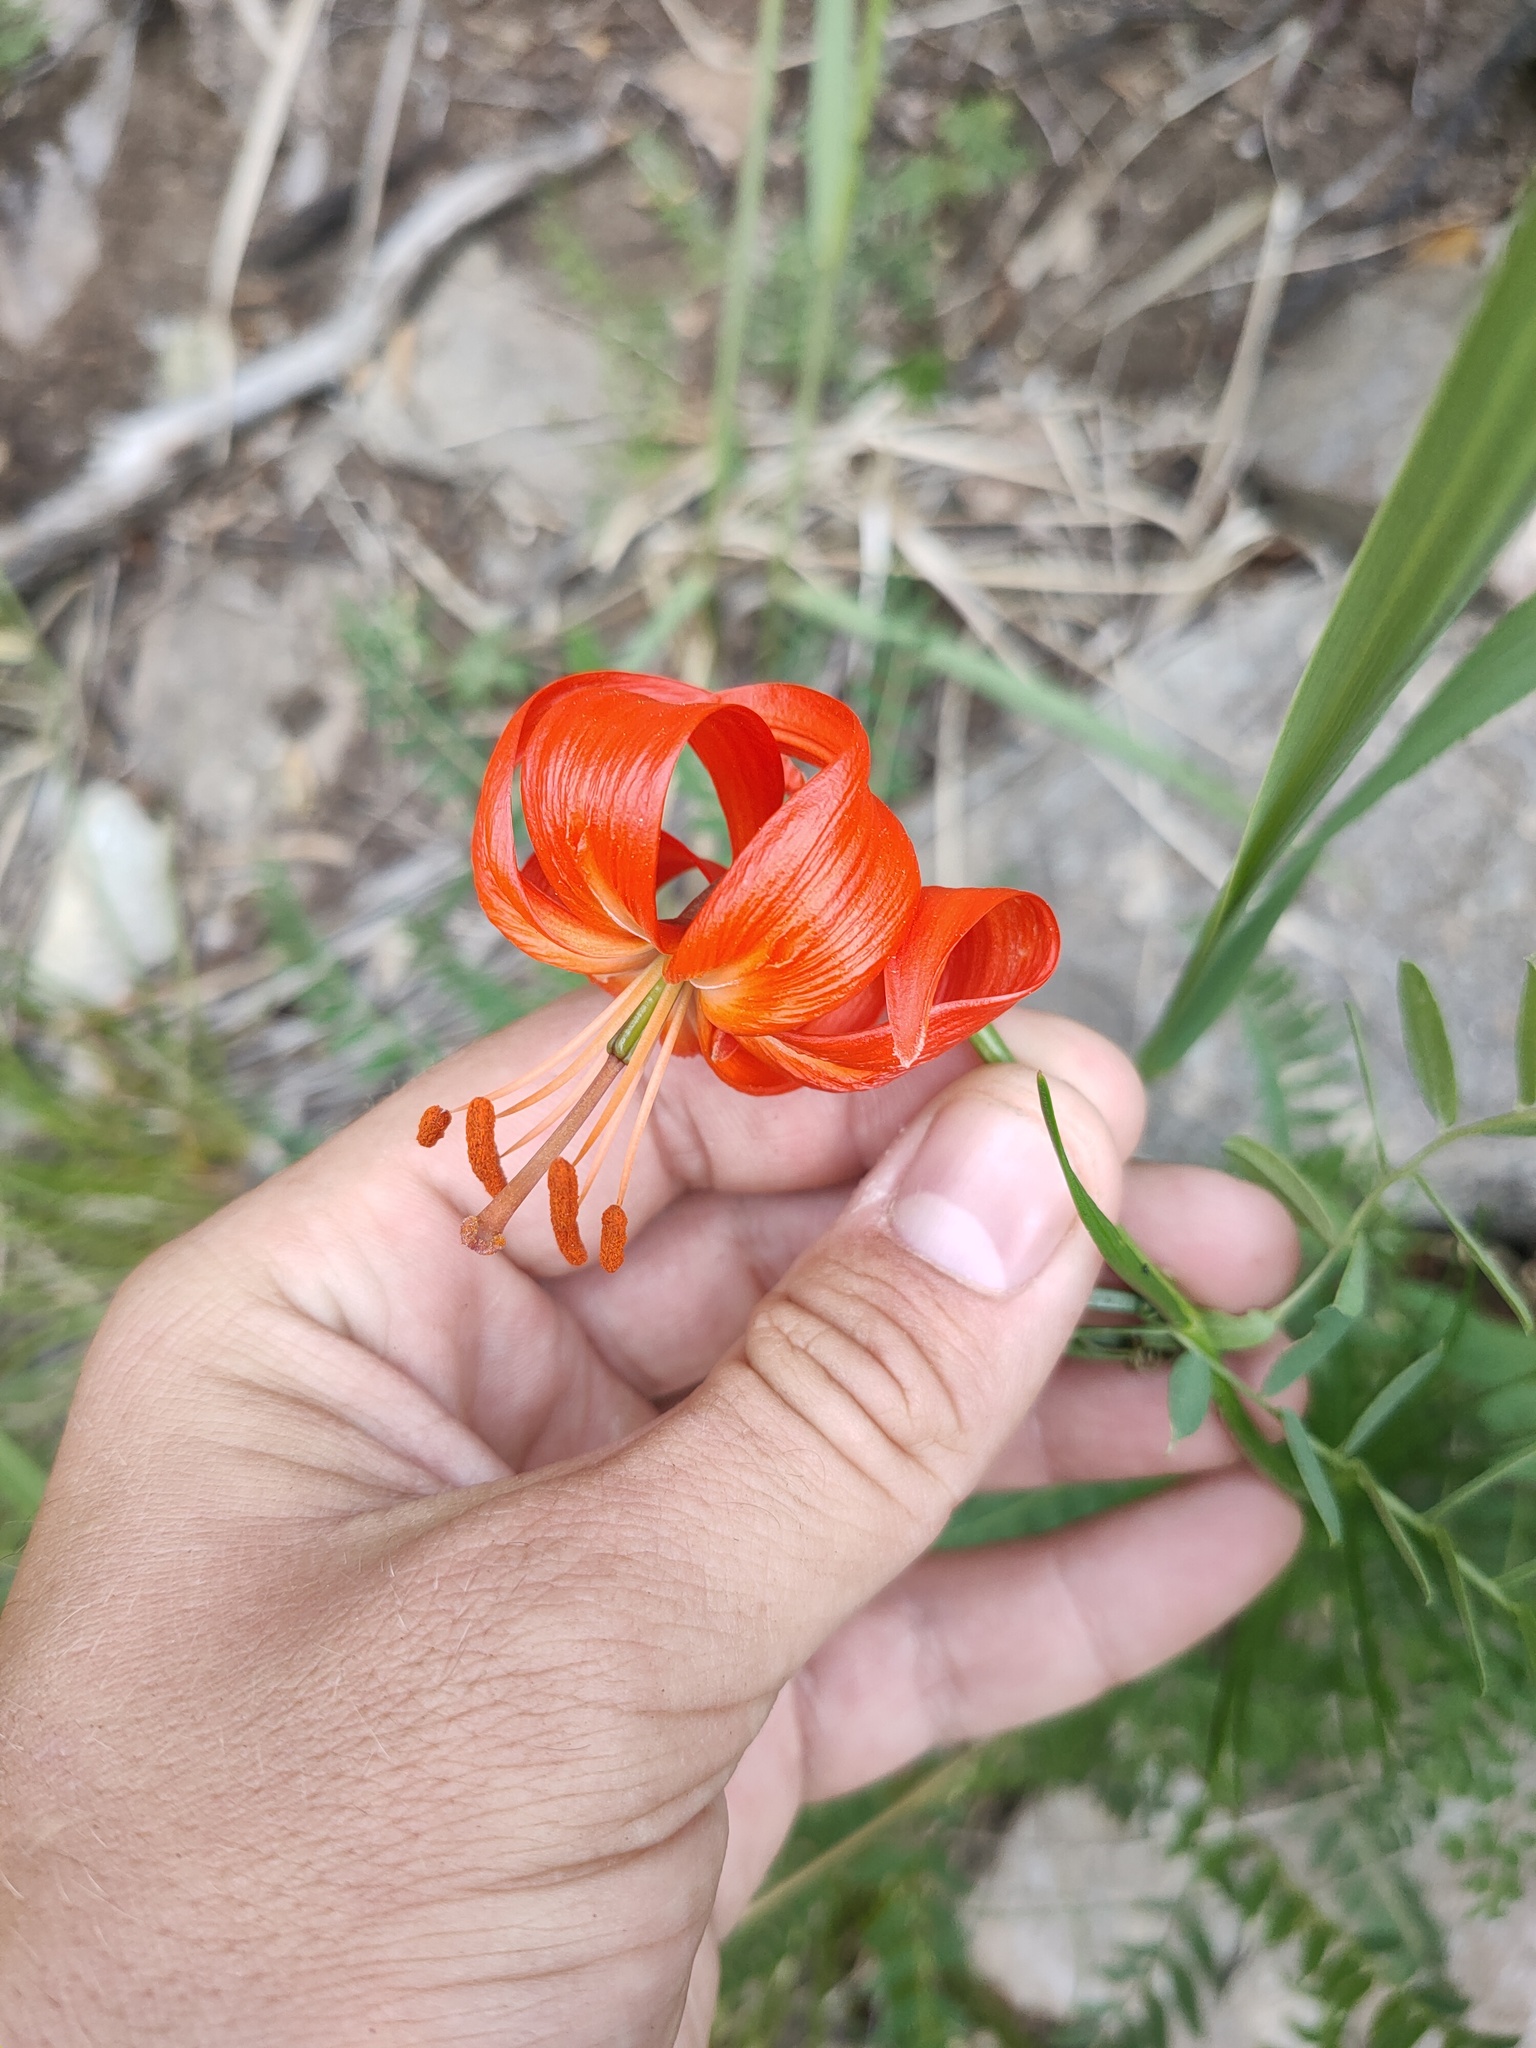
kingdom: Plantae
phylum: Tracheophyta
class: Liliopsida
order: Liliales
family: Liliaceae
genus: Lilium
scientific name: Lilium pumilum
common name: Coral lily
